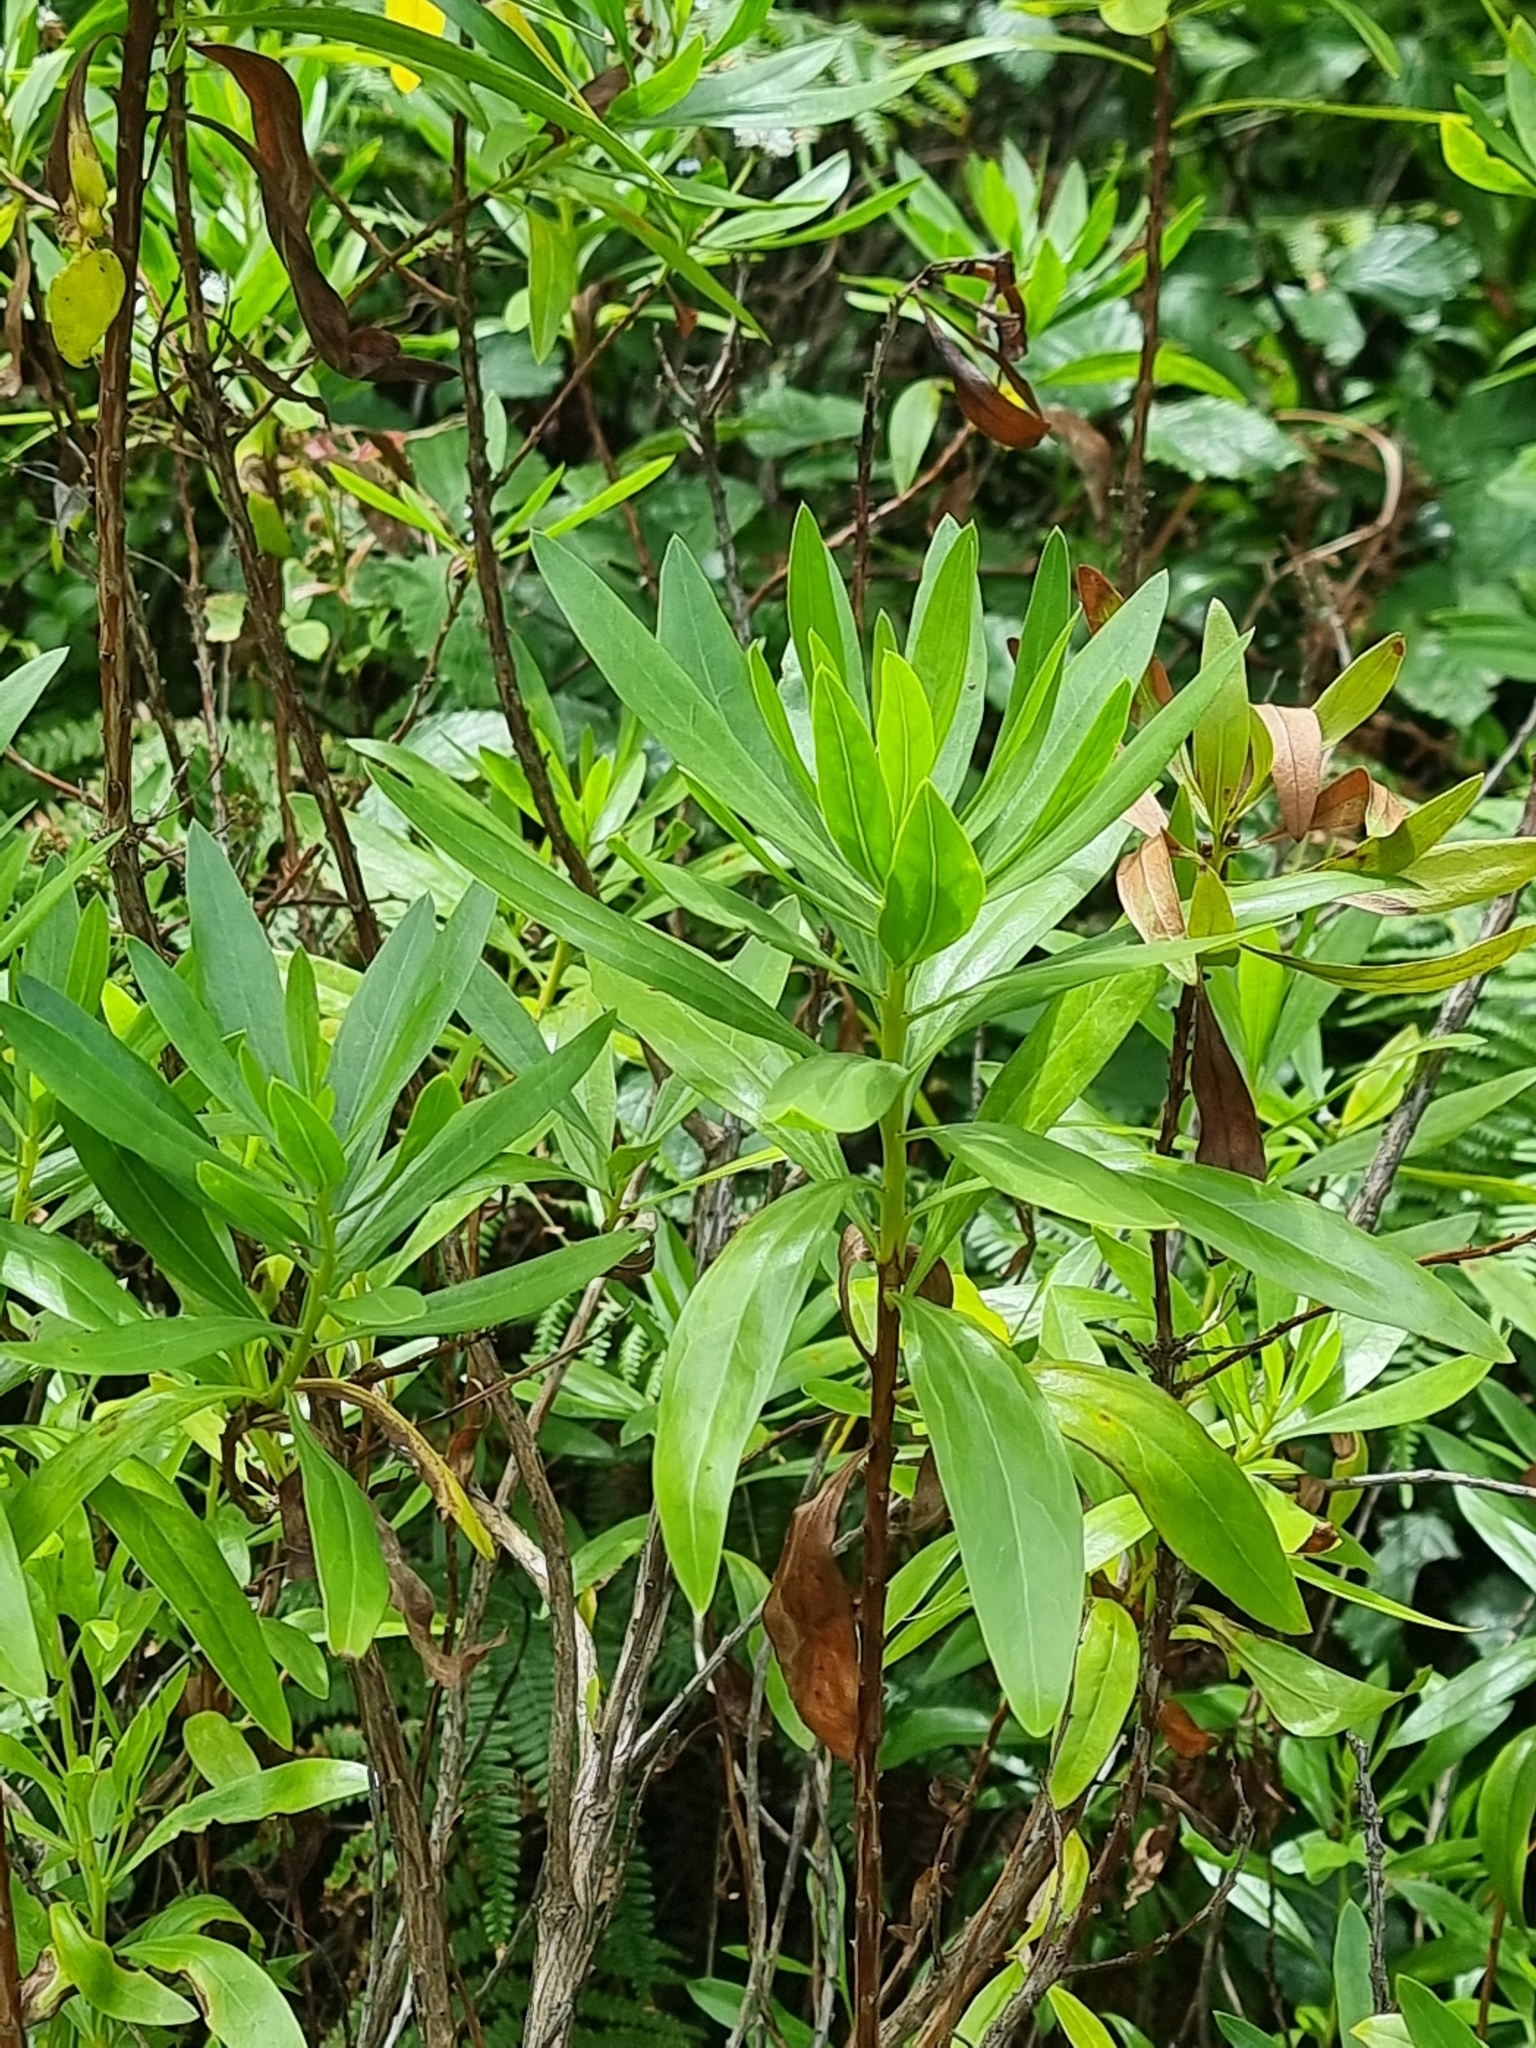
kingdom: Plantae
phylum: Tracheophyta
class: Magnoliopsida
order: Lamiales
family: Plantaginaceae
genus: Globularia
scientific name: Globularia salicina
